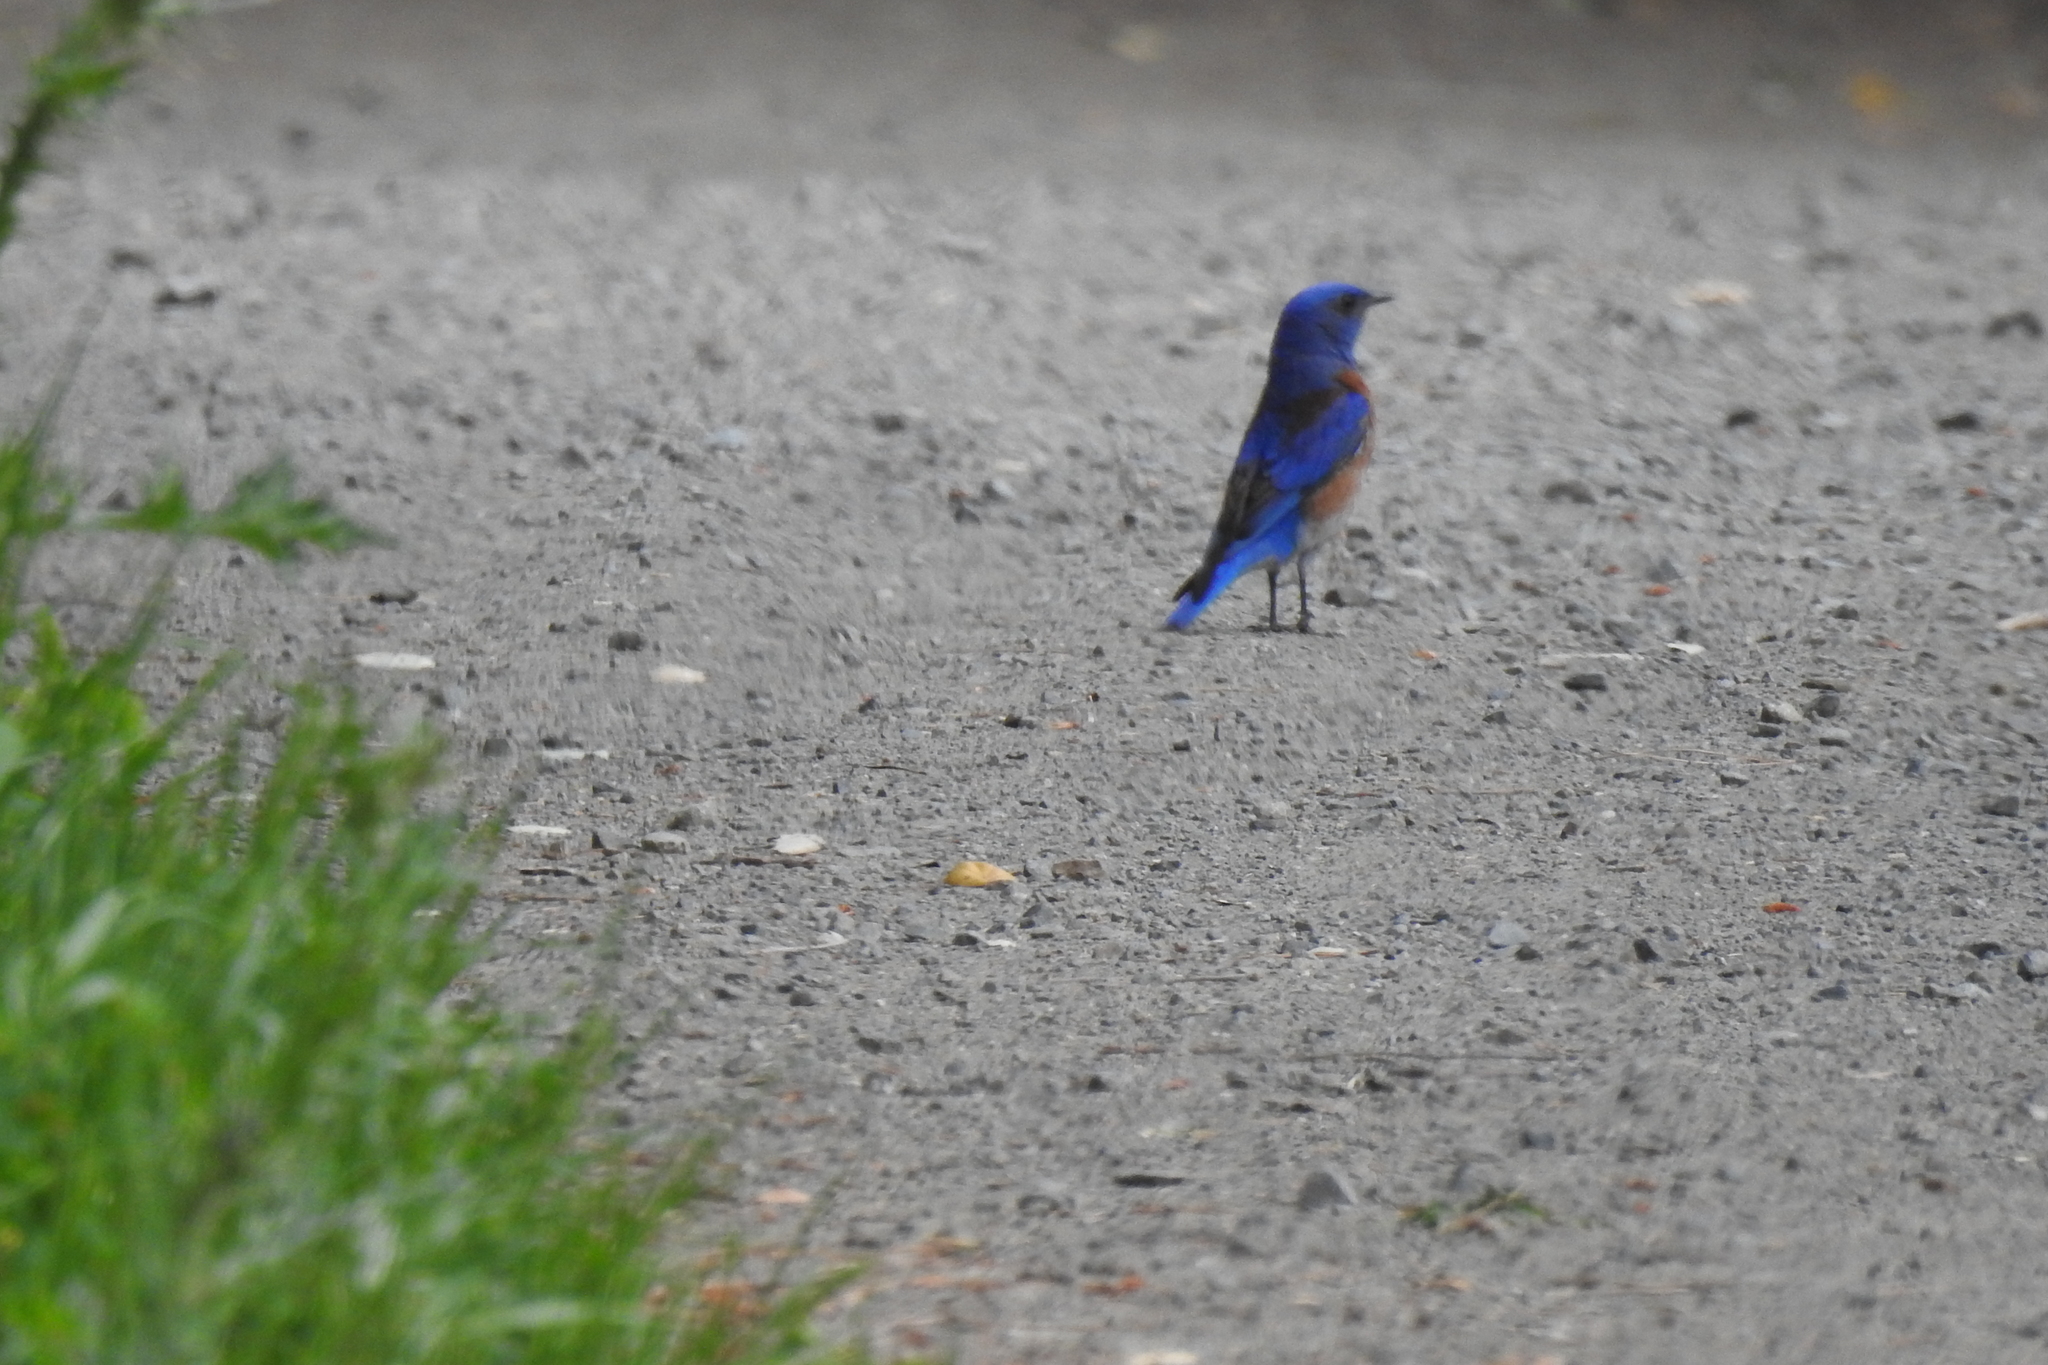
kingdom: Animalia
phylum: Chordata
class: Aves
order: Passeriformes
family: Turdidae
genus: Sialia
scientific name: Sialia mexicana
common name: Western bluebird
